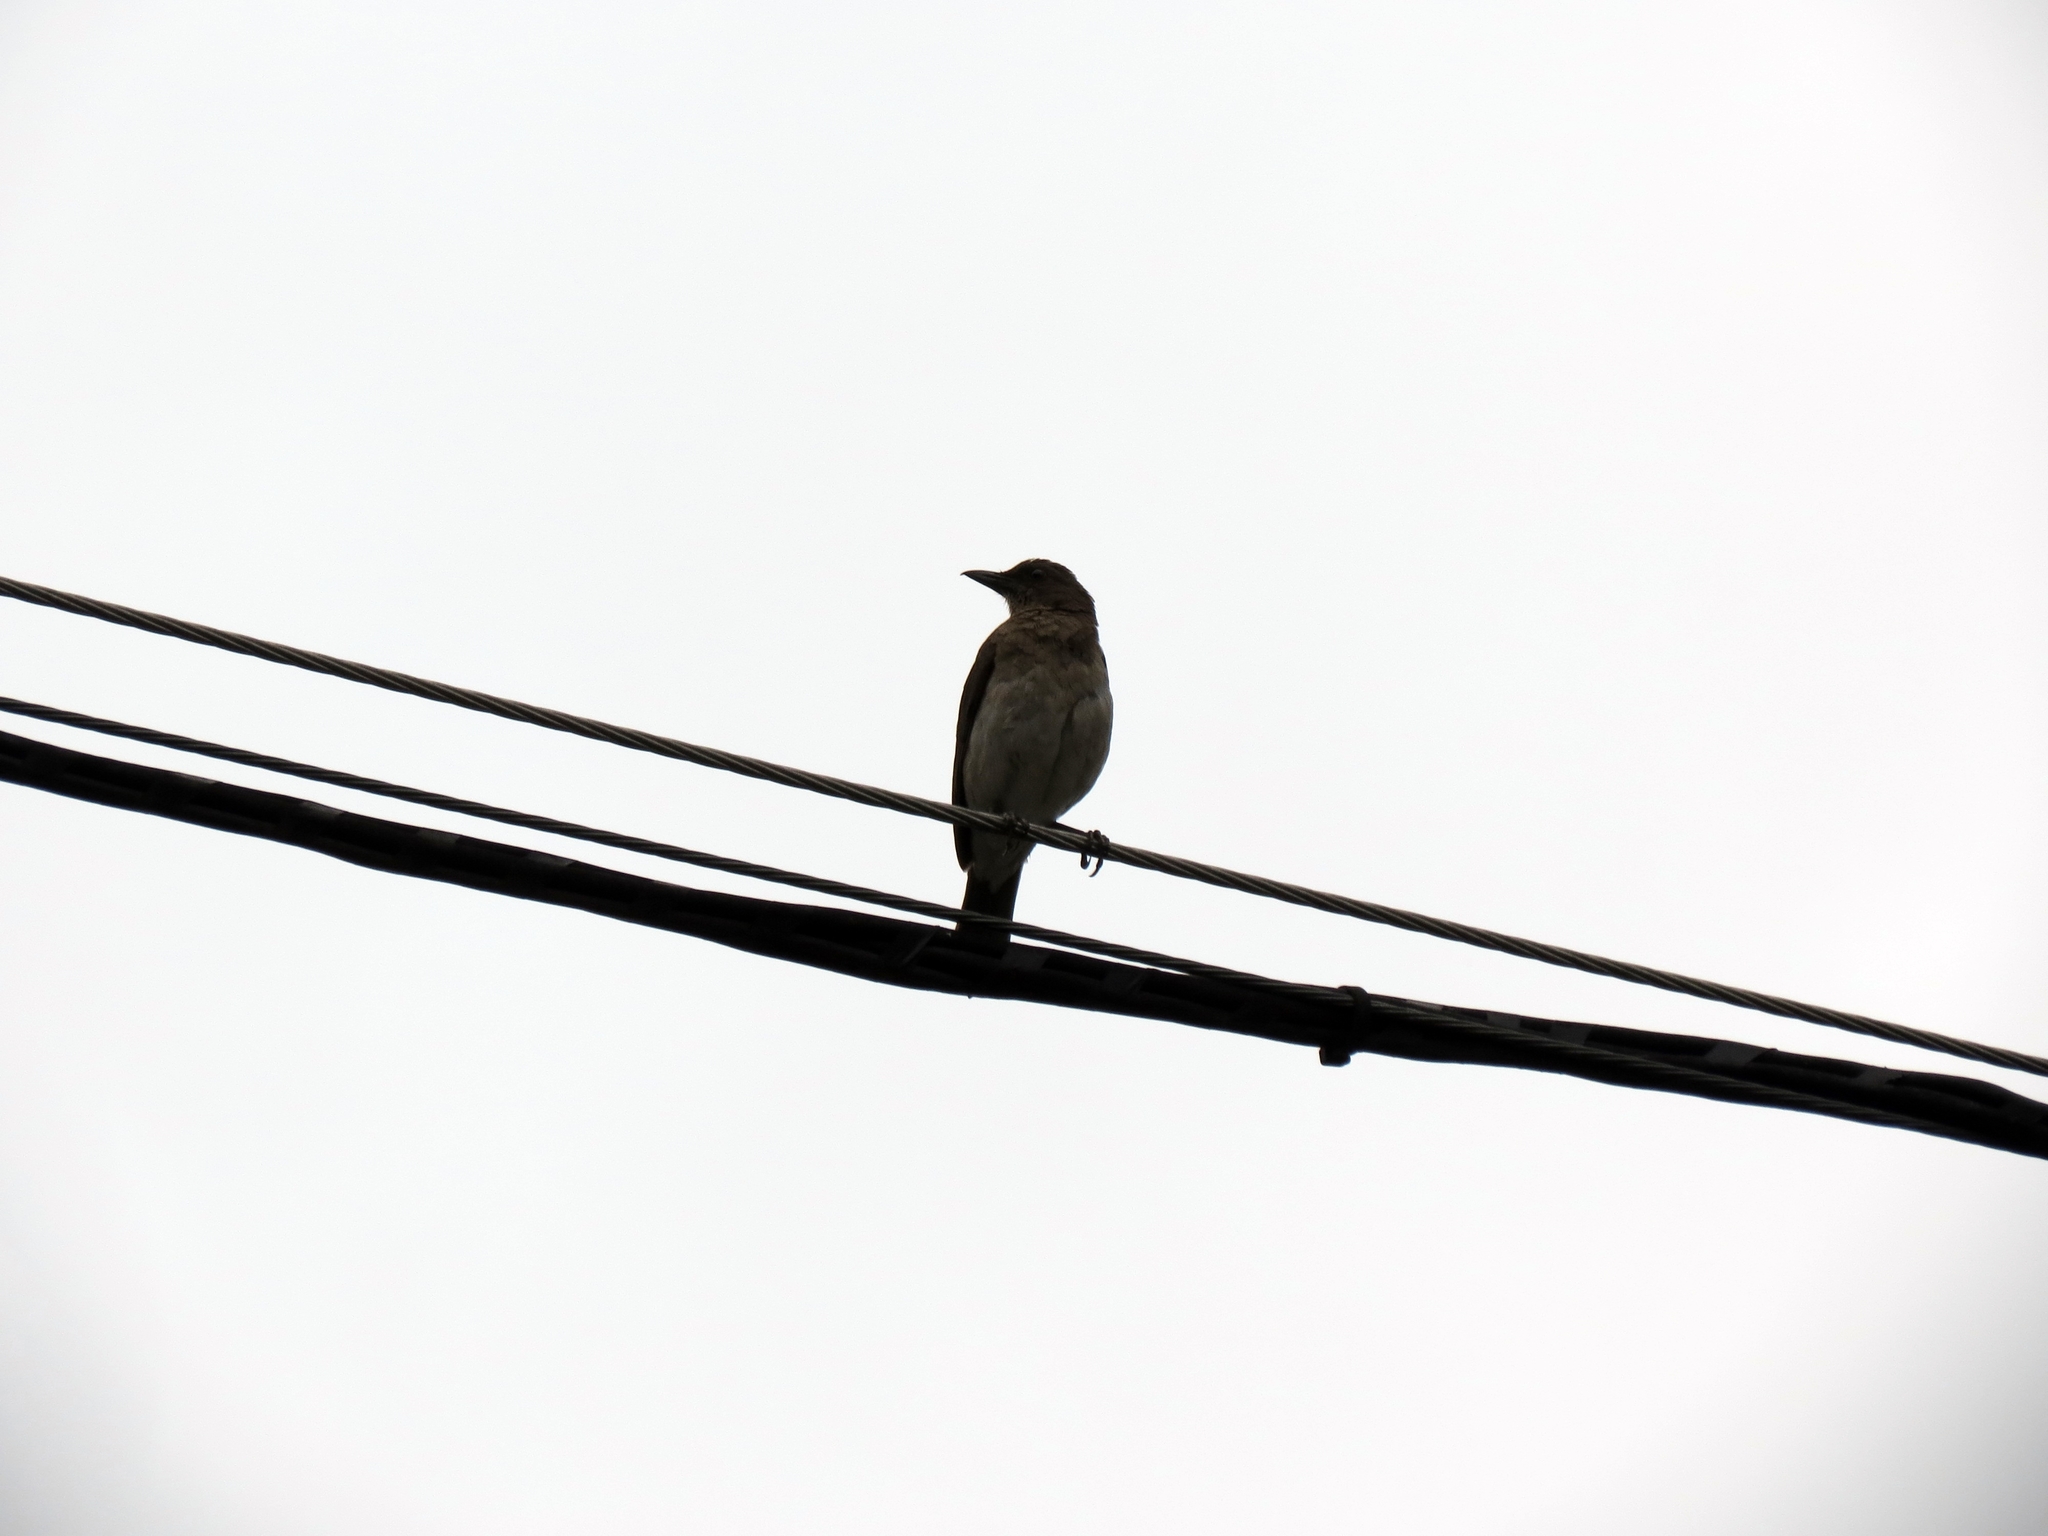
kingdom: Animalia
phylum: Chordata
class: Aves
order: Passeriformes
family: Turdidae
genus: Turdus
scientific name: Turdus ignobilis
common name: Black-billed thrush
